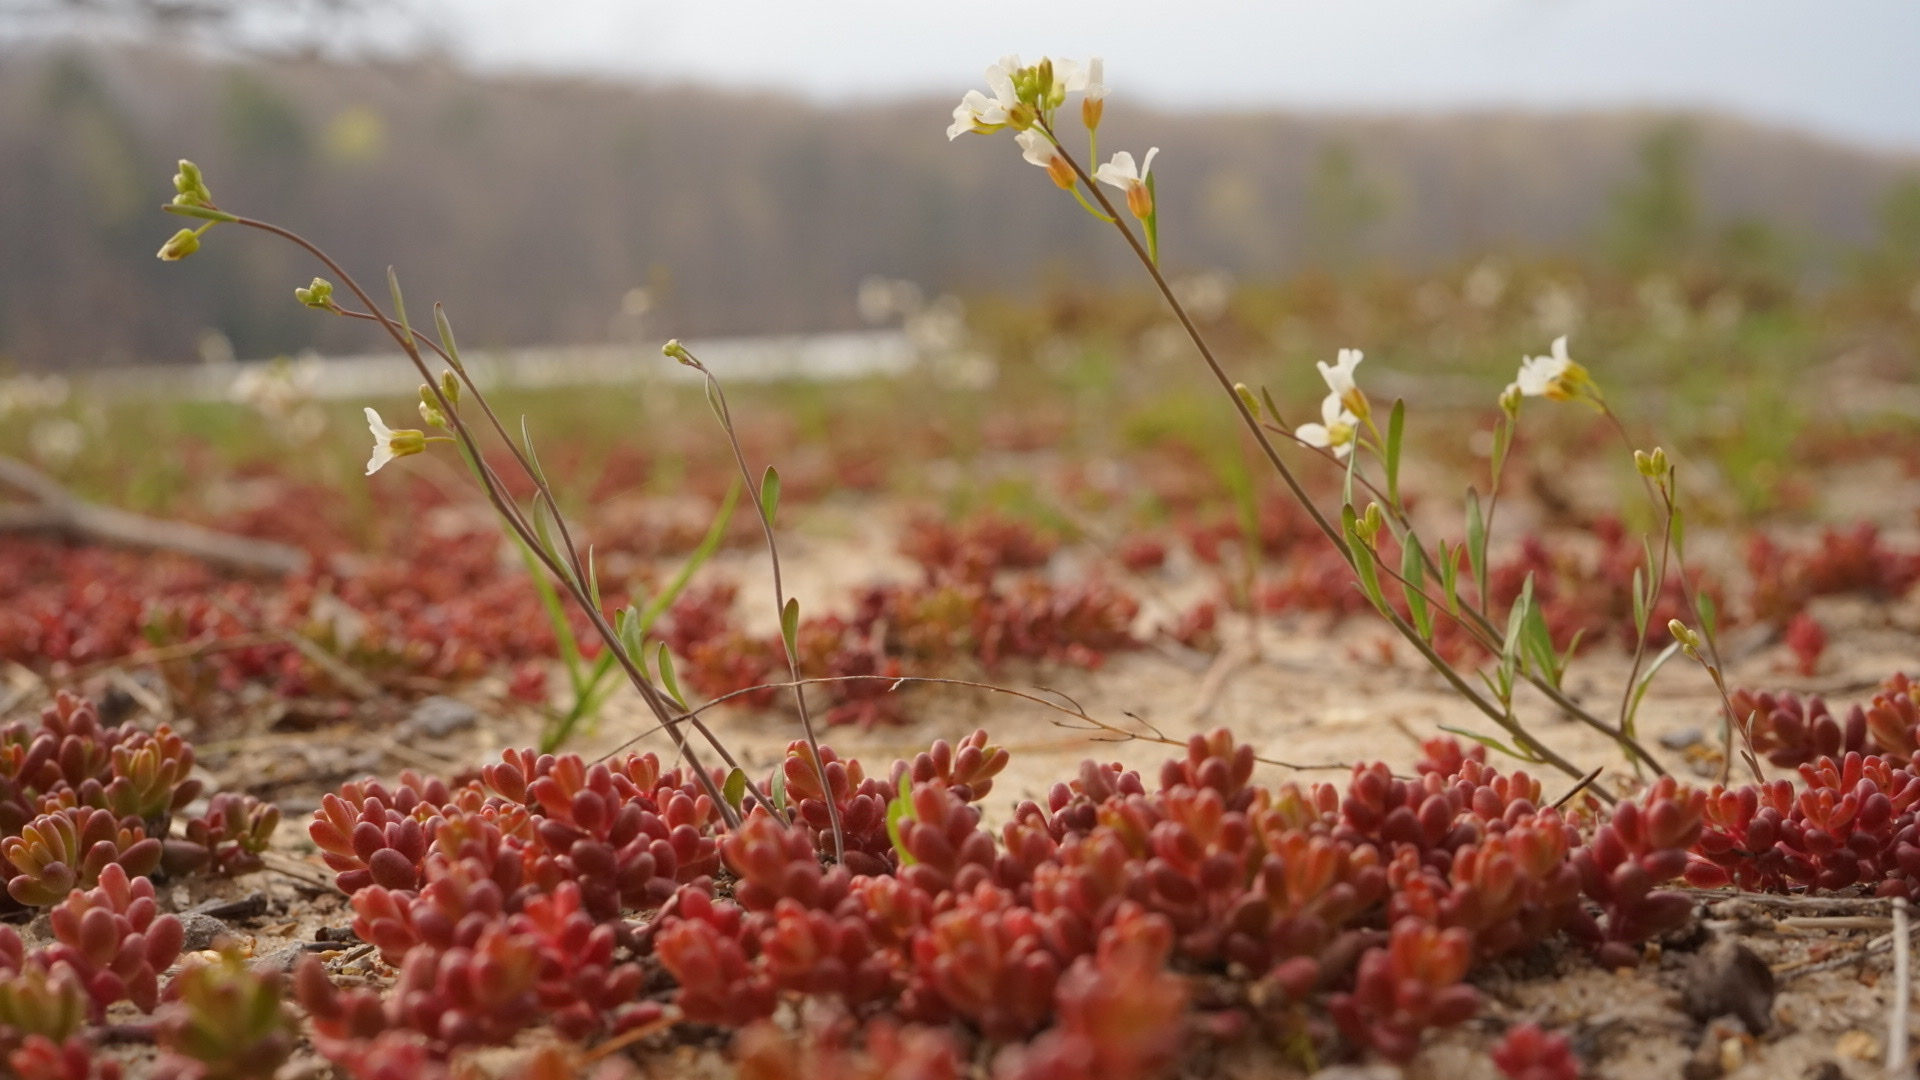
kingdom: Plantae
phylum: Tracheophyta
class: Magnoliopsida
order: Saxifragales
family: Crassulaceae
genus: Sedum
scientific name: Sedum album
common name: White stonecrop
